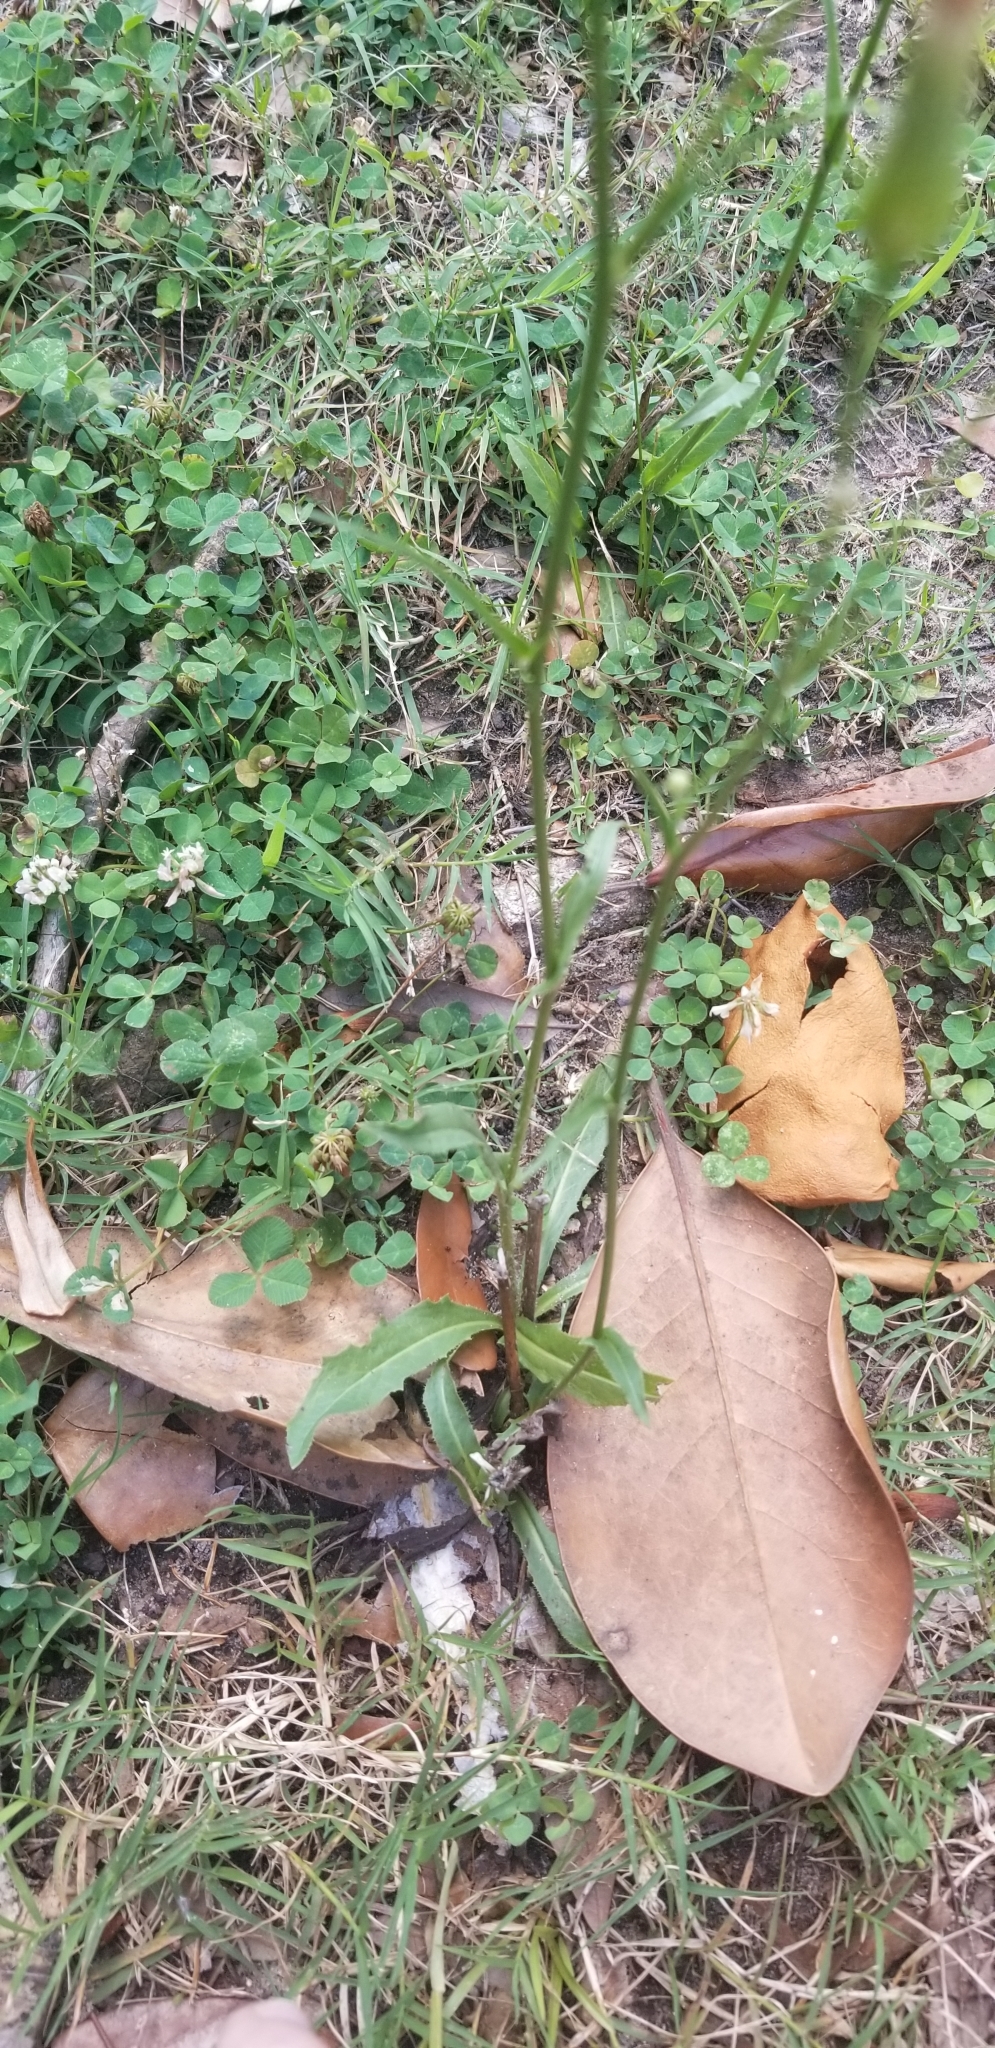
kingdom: Plantae
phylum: Tracheophyta
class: Magnoliopsida
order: Asterales
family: Asteraceae
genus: Hypochaeris
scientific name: Hypochaeris chillensis
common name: Brazilian cat's ear
